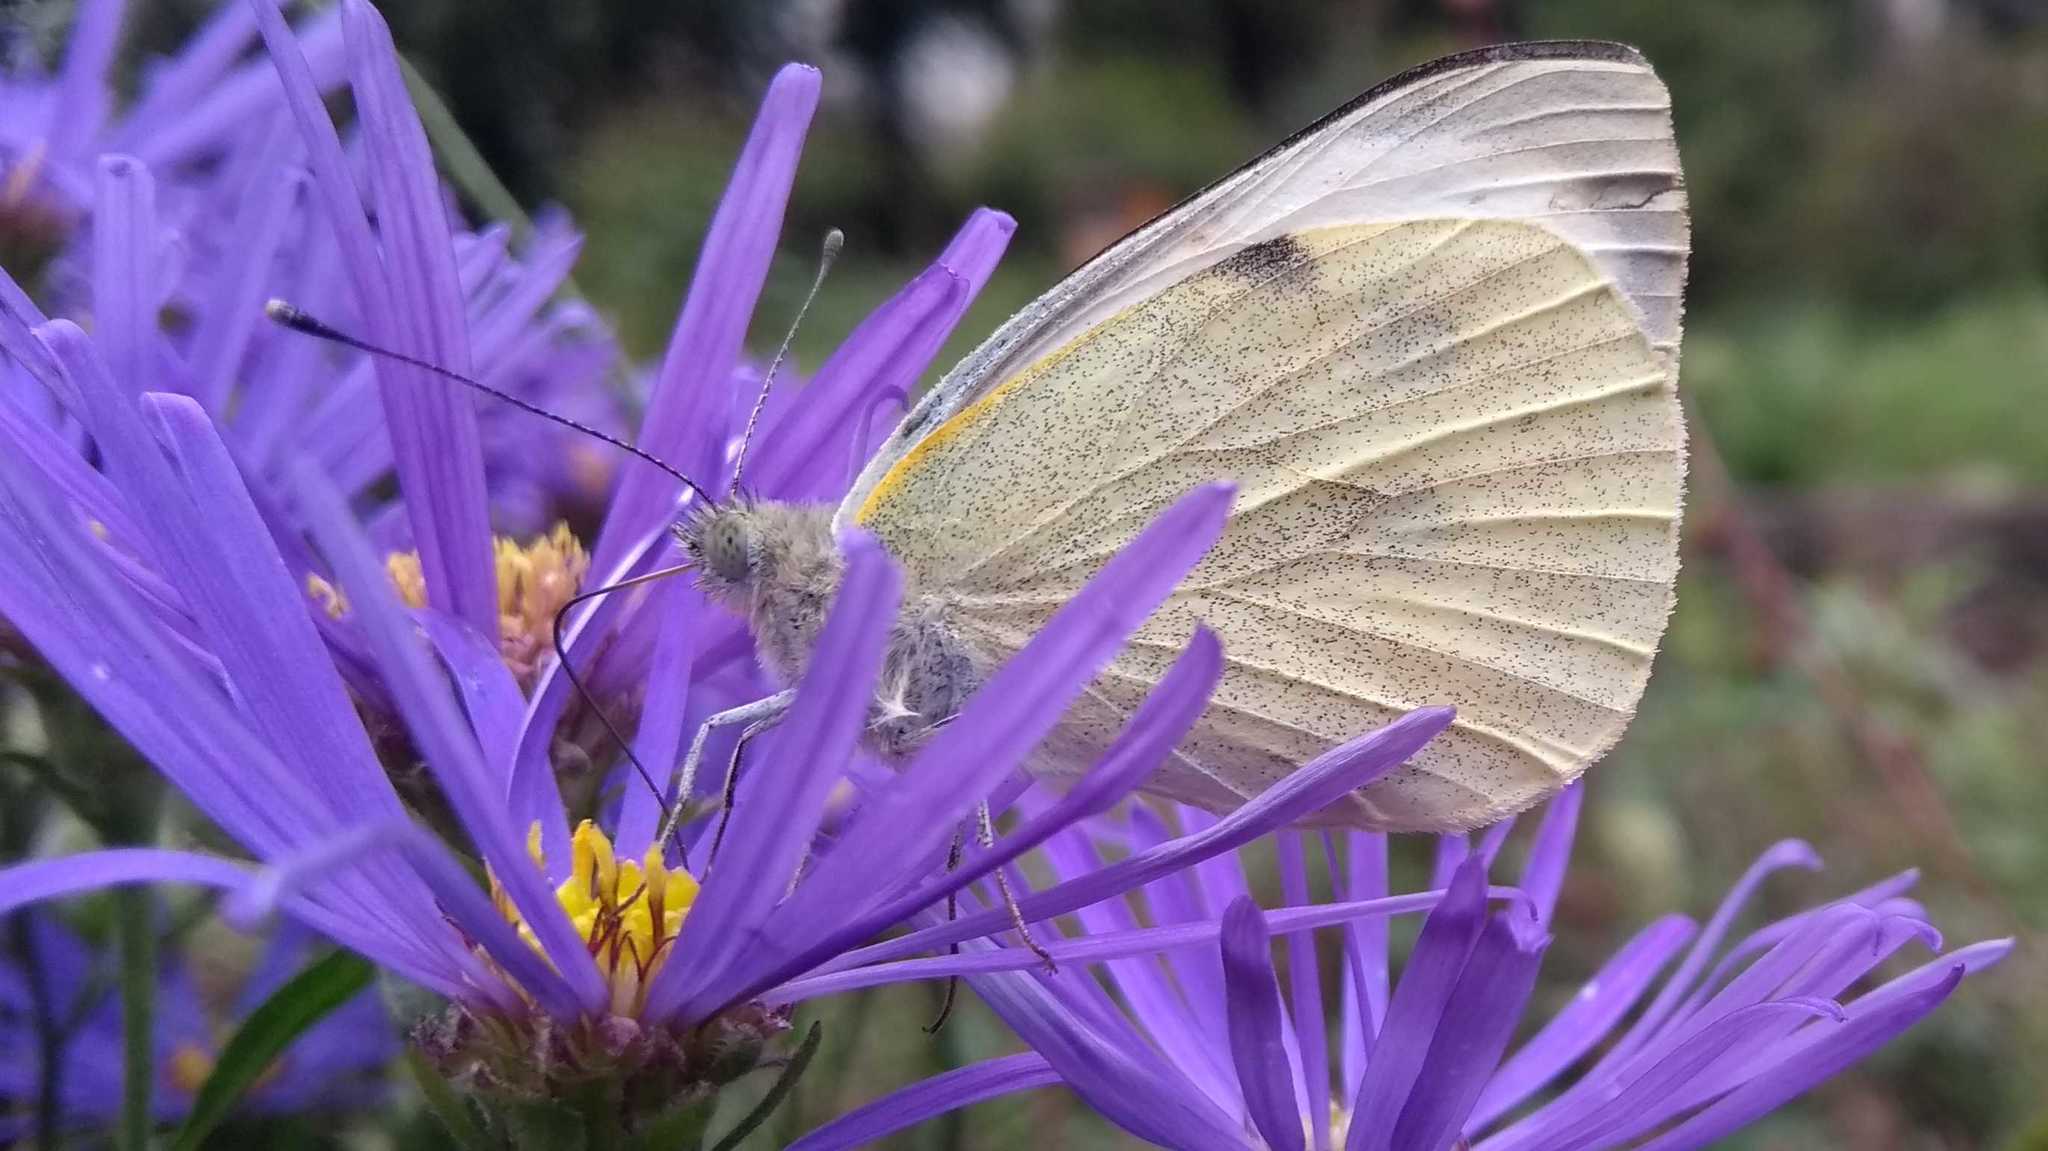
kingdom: Animalia
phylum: Arthropoda
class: Insecta
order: Lepidoptera
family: Pieridae
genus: Pieris
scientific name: Pieris brassicae
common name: Large white
